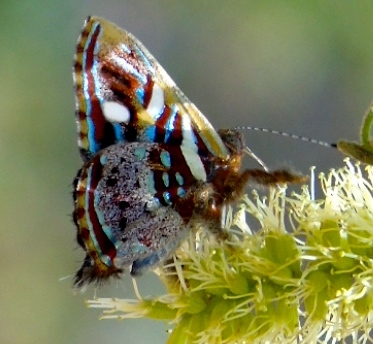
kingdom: Animalia
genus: Anteros
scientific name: Anteros carausius
